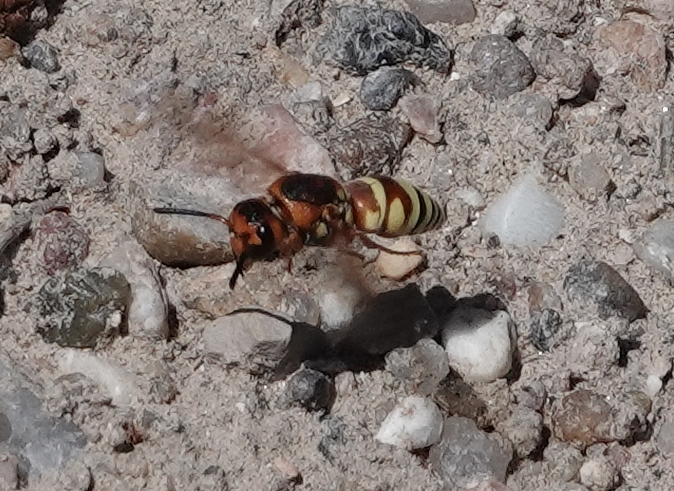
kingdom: Animalia
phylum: Arthropoda
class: Insecta
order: Hymenoptera
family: Eumenidae
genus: Euodynerus
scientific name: Euodynerus annulatus
